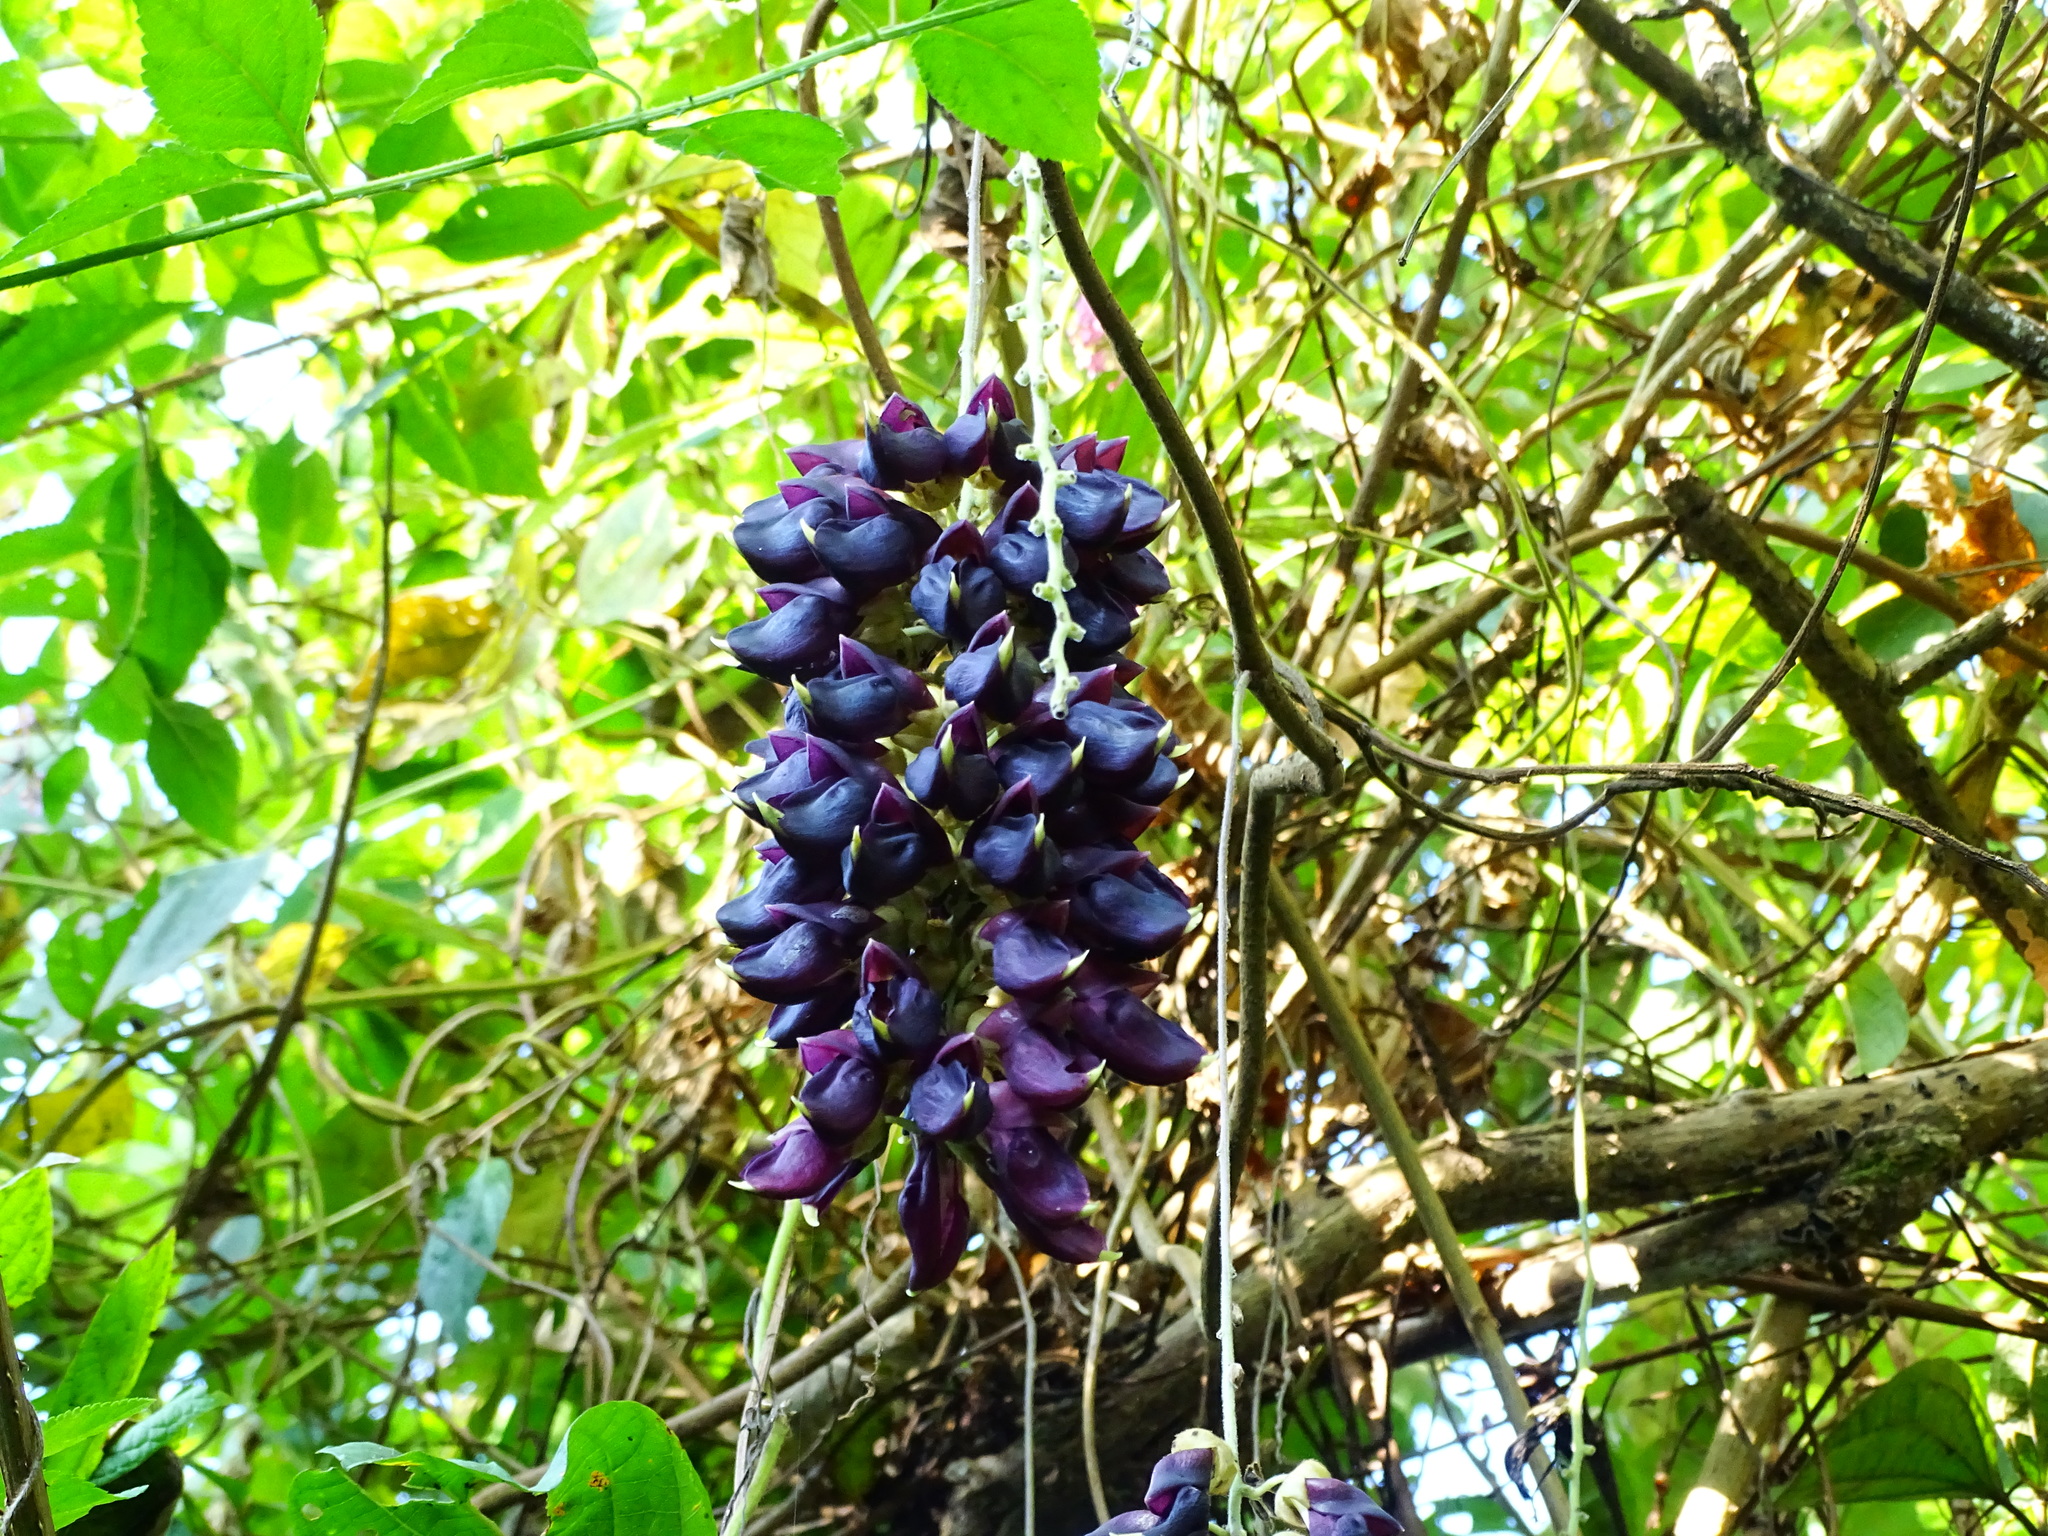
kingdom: Plantae
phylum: Tracheophyta
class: Magnoliopsida
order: Fabales
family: Fabaceae
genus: Mucuna
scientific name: Mucuna pruriens
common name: Cow-itch
